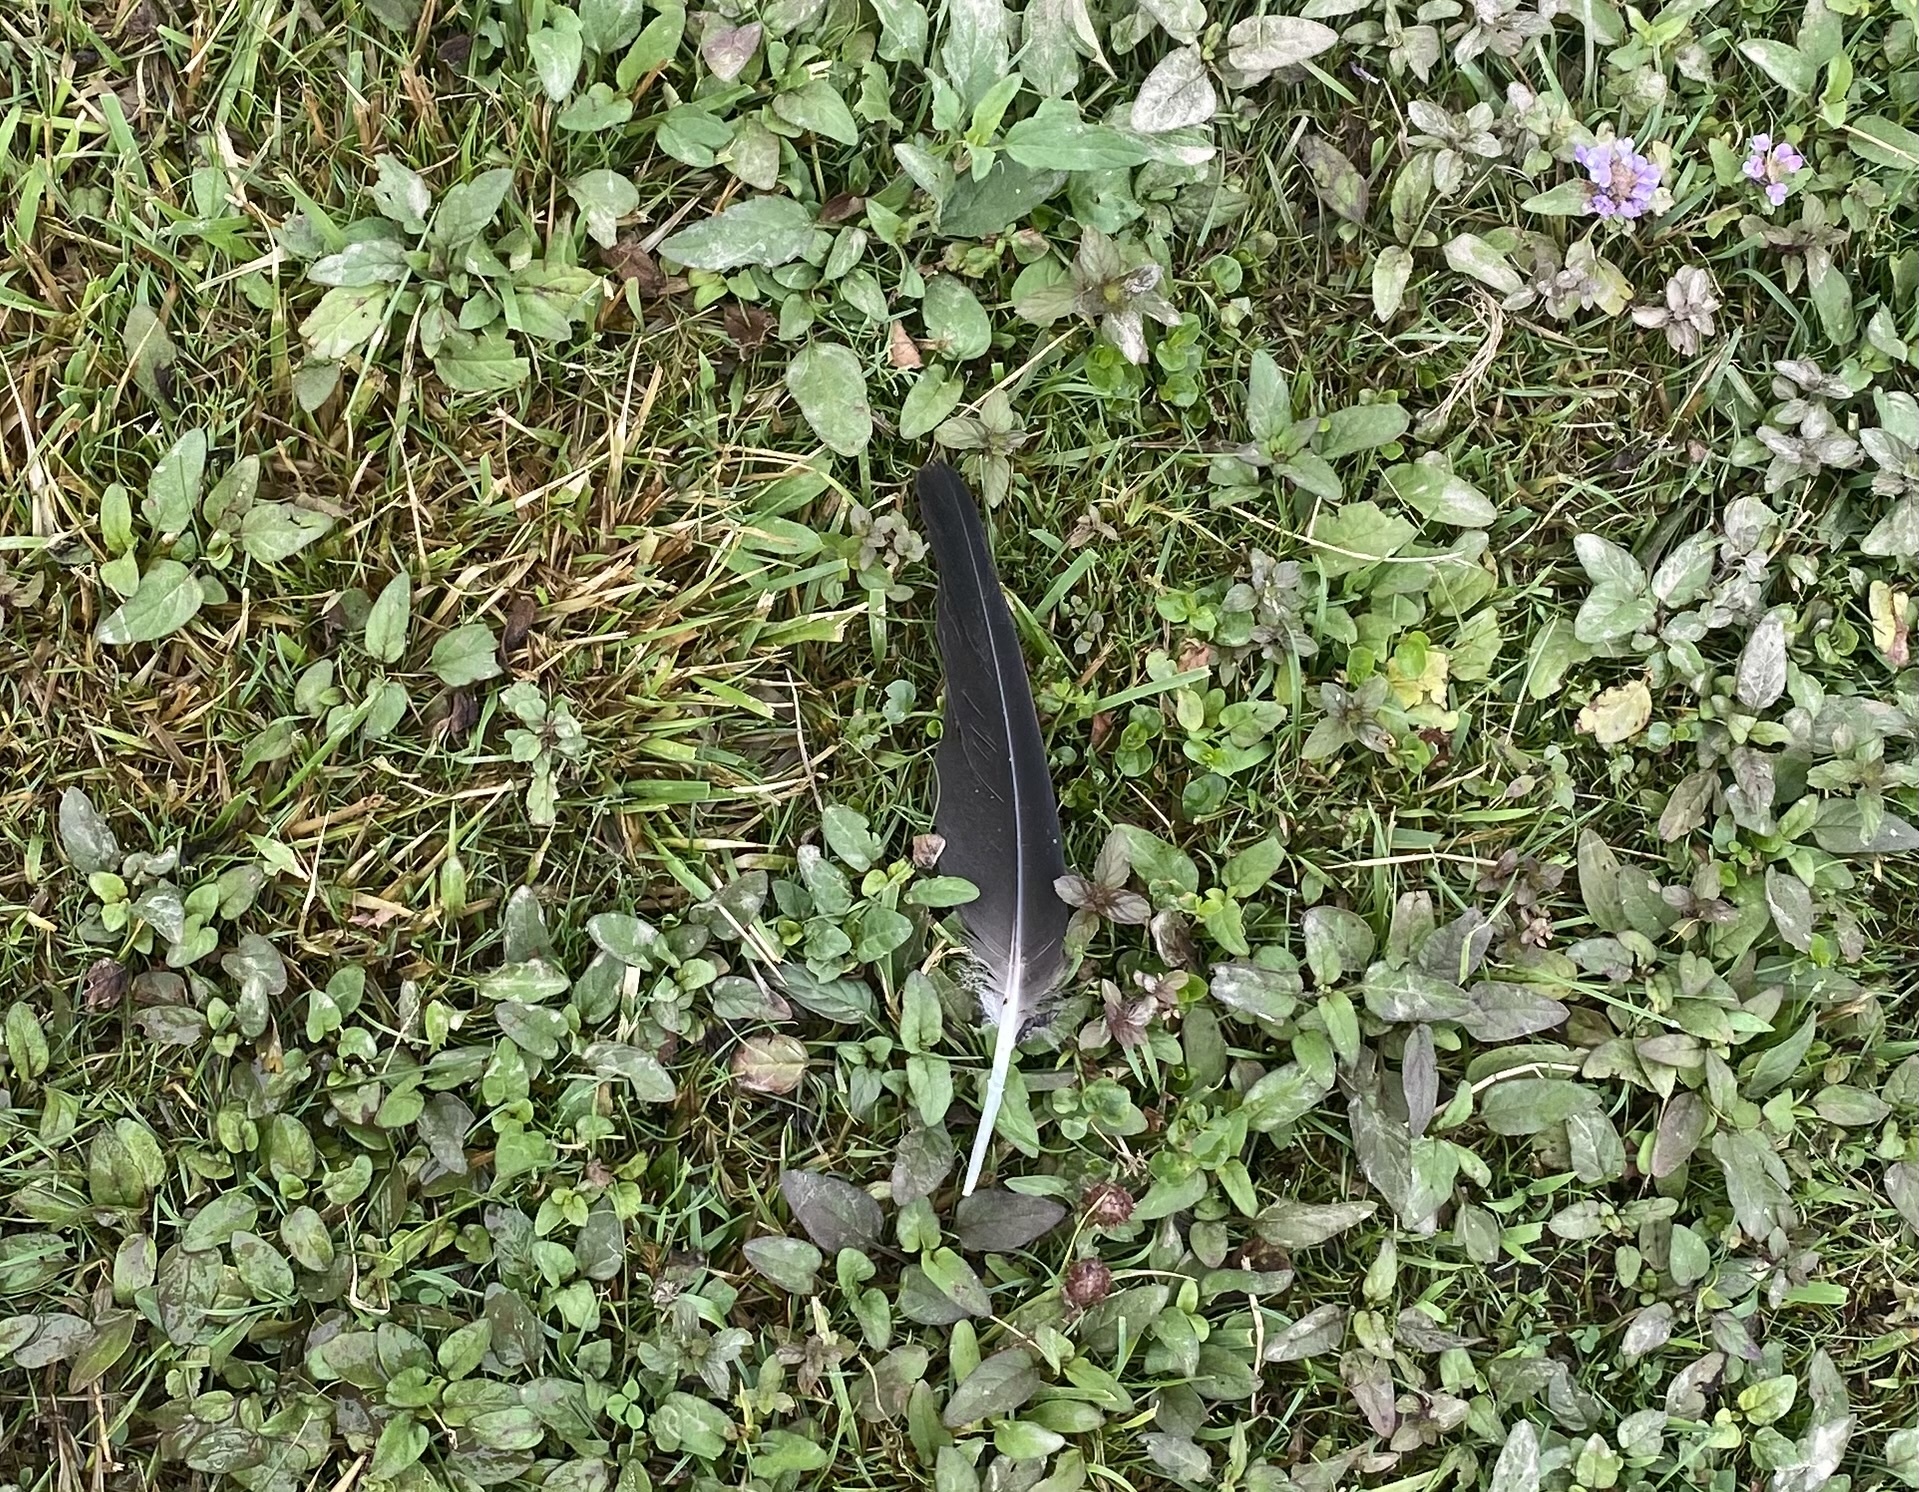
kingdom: Animalia
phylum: Chordata
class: Aves
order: Anseriformes
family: Anatidae
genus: Branta
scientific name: Branta canadensis
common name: Canada goose
